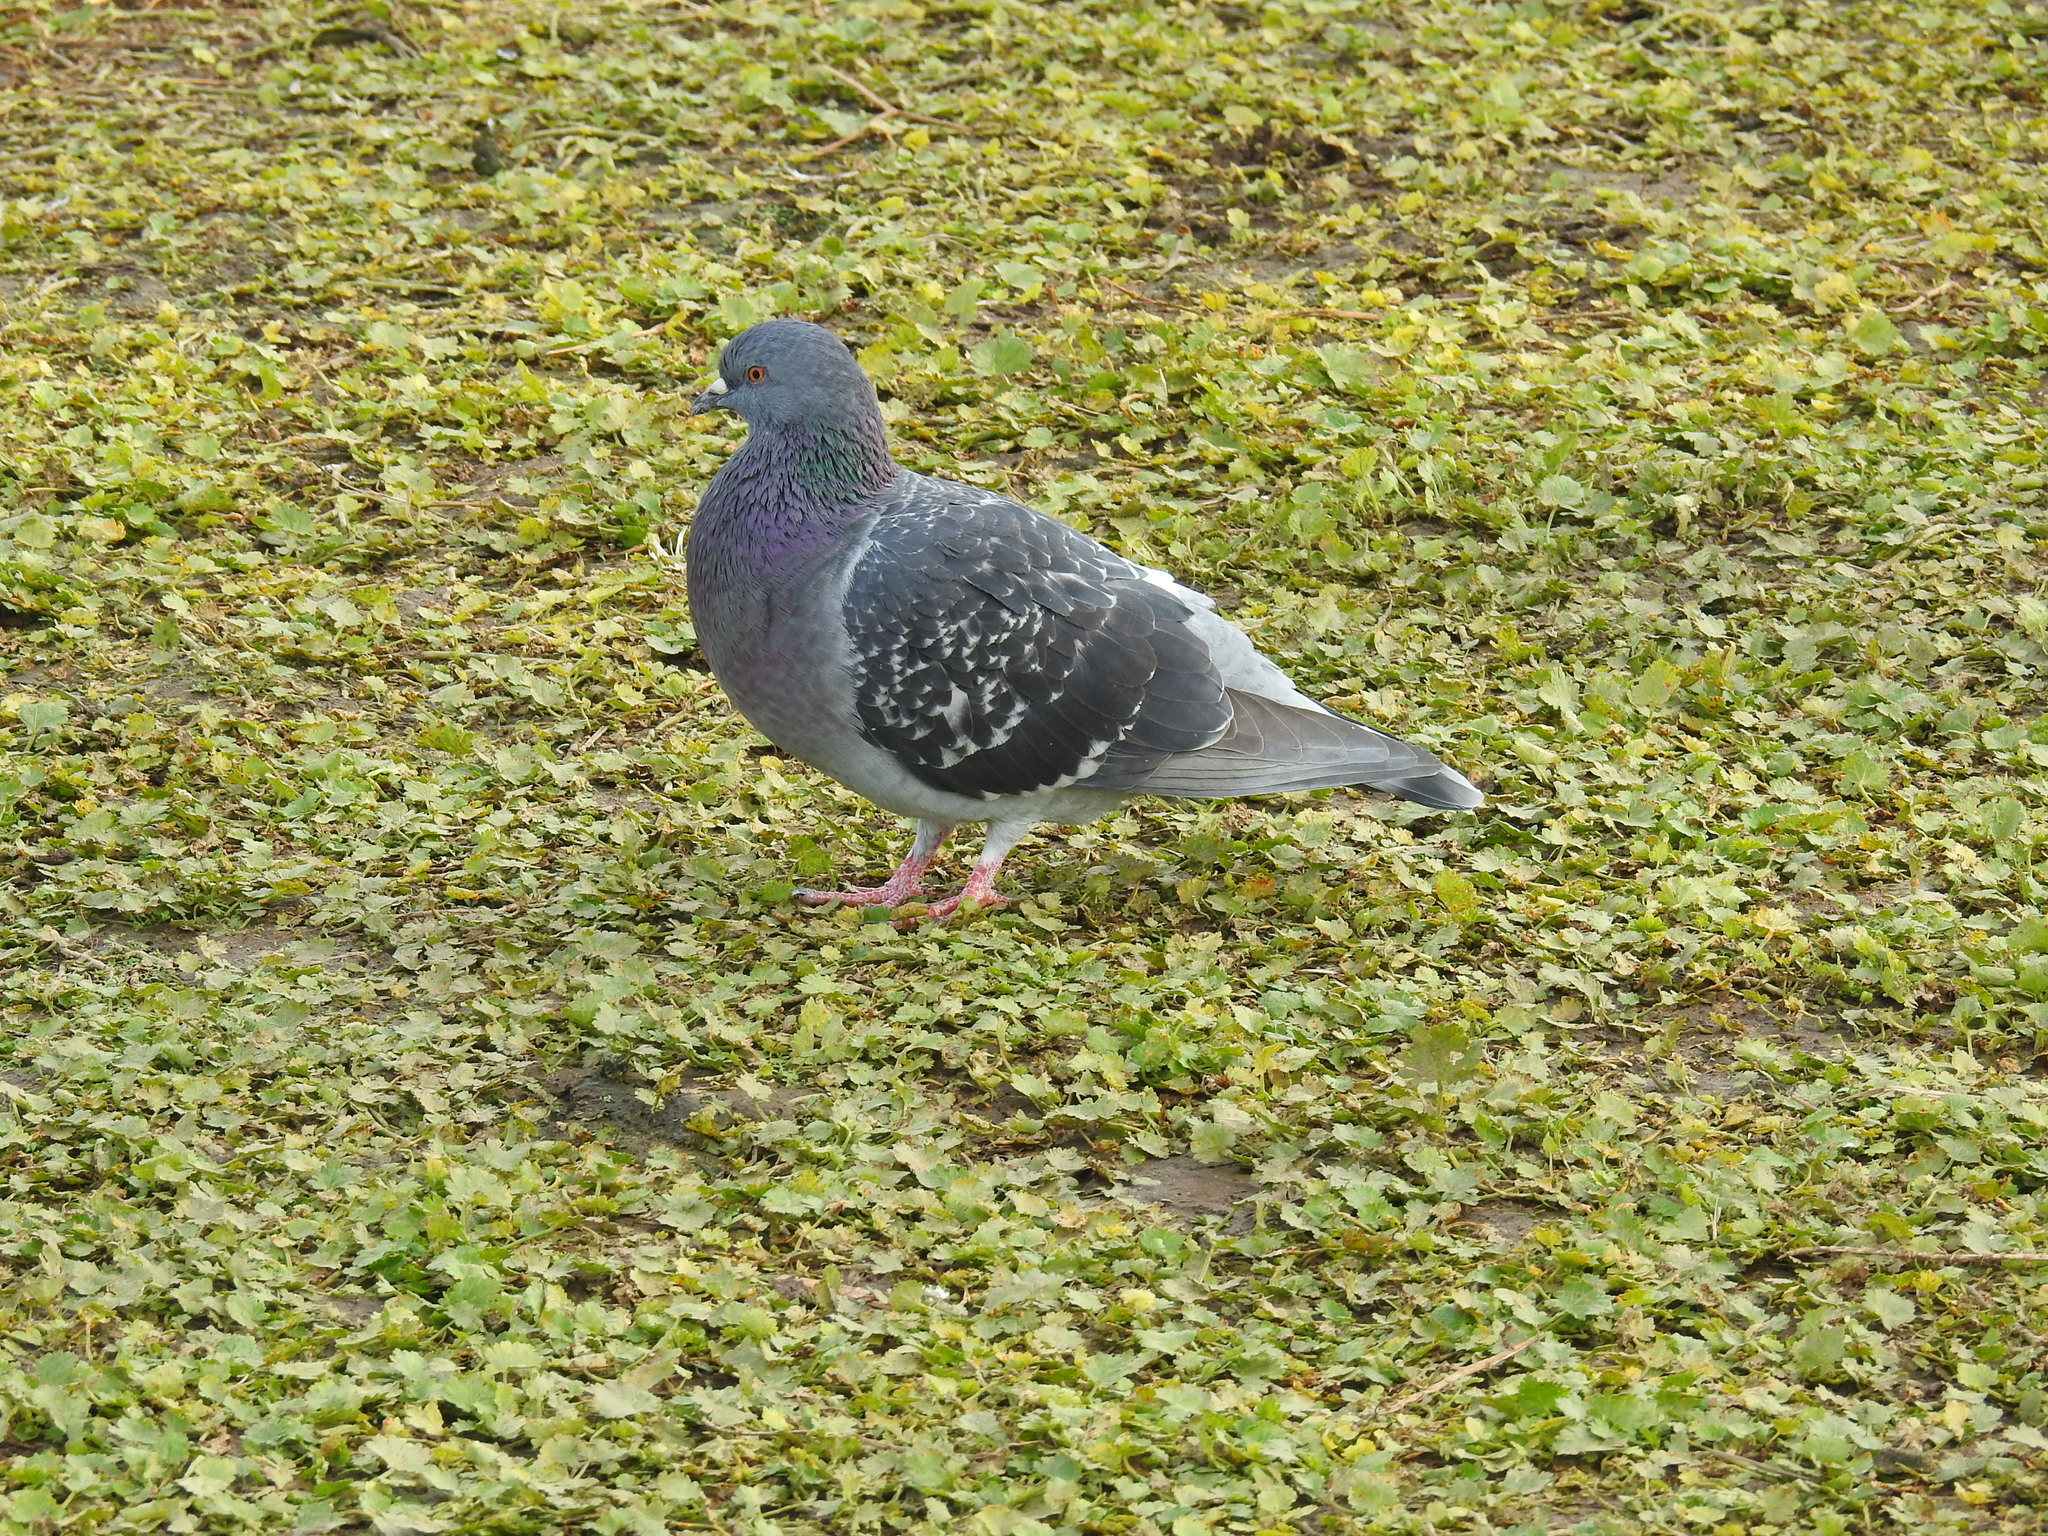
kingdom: Animalia
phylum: Chordata
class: Aves
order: Columbiformes
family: Columbidae
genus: Columba
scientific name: Columba livia
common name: Rock pigeon
